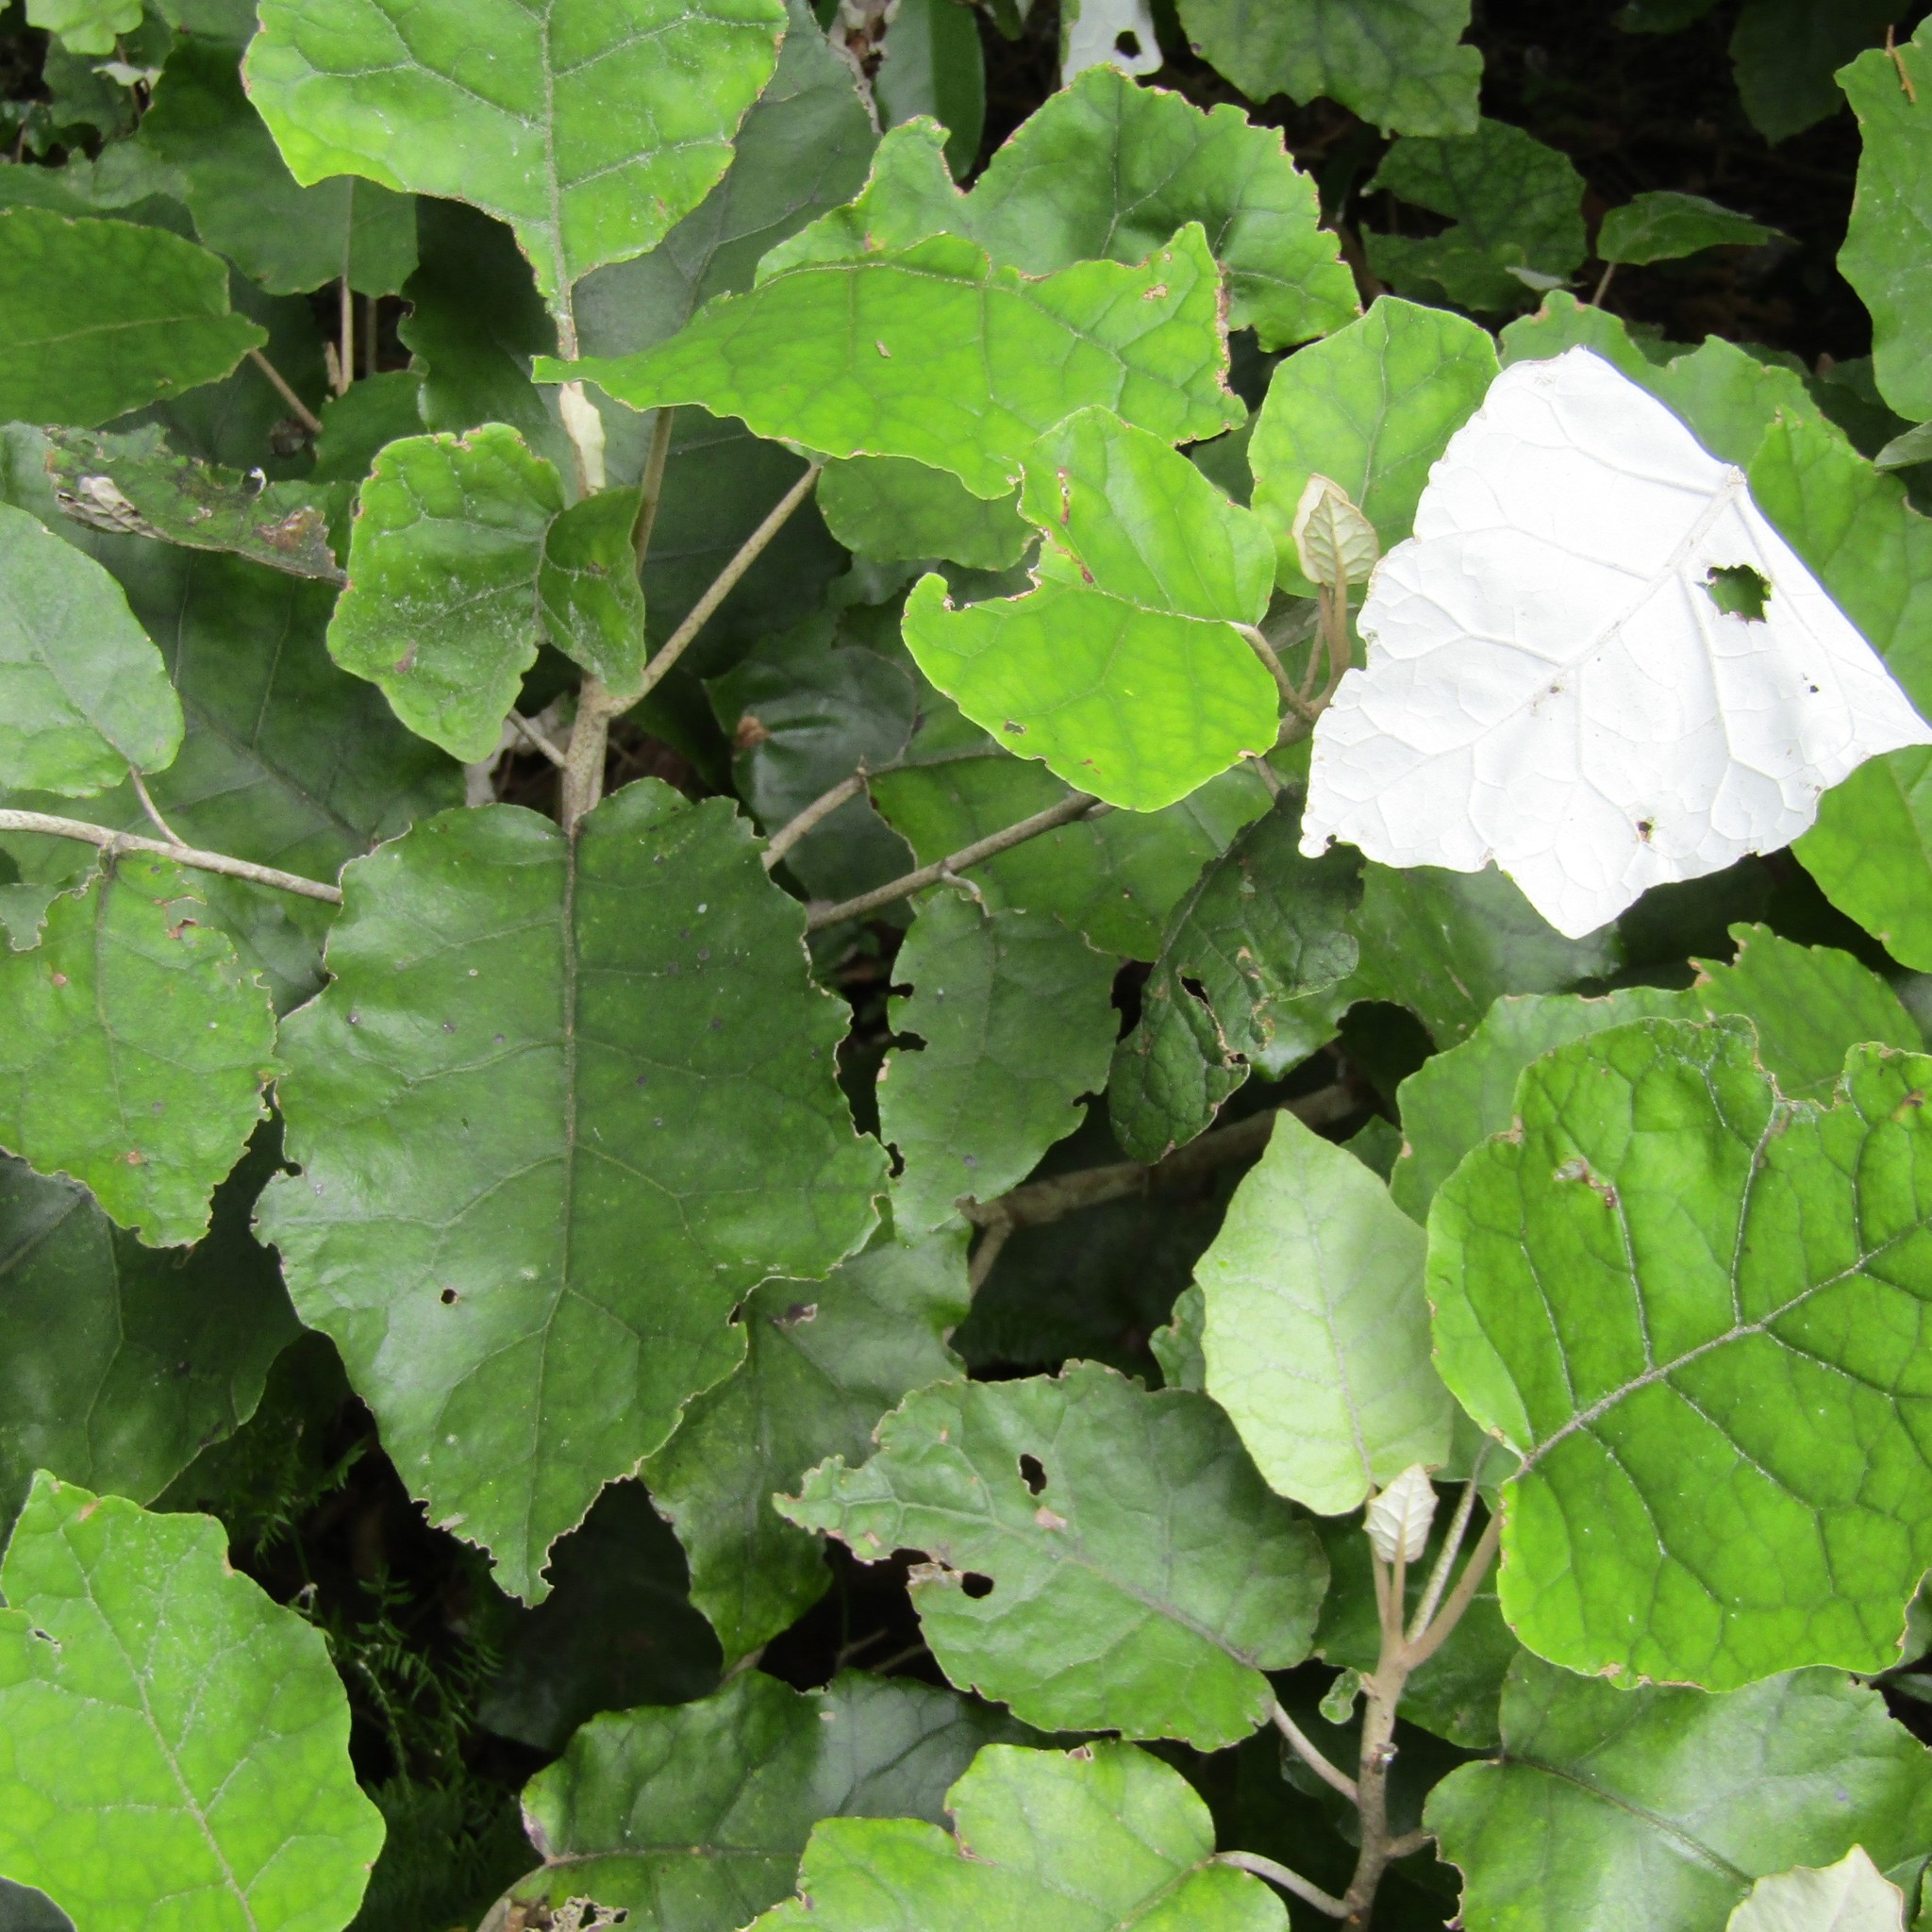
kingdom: Plantae
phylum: Tracheophyta
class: Magnoliopsida
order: Asterales
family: Asteraceae
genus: Brachyglottis
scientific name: Brachyglottis repanda
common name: Hedge ragwort
